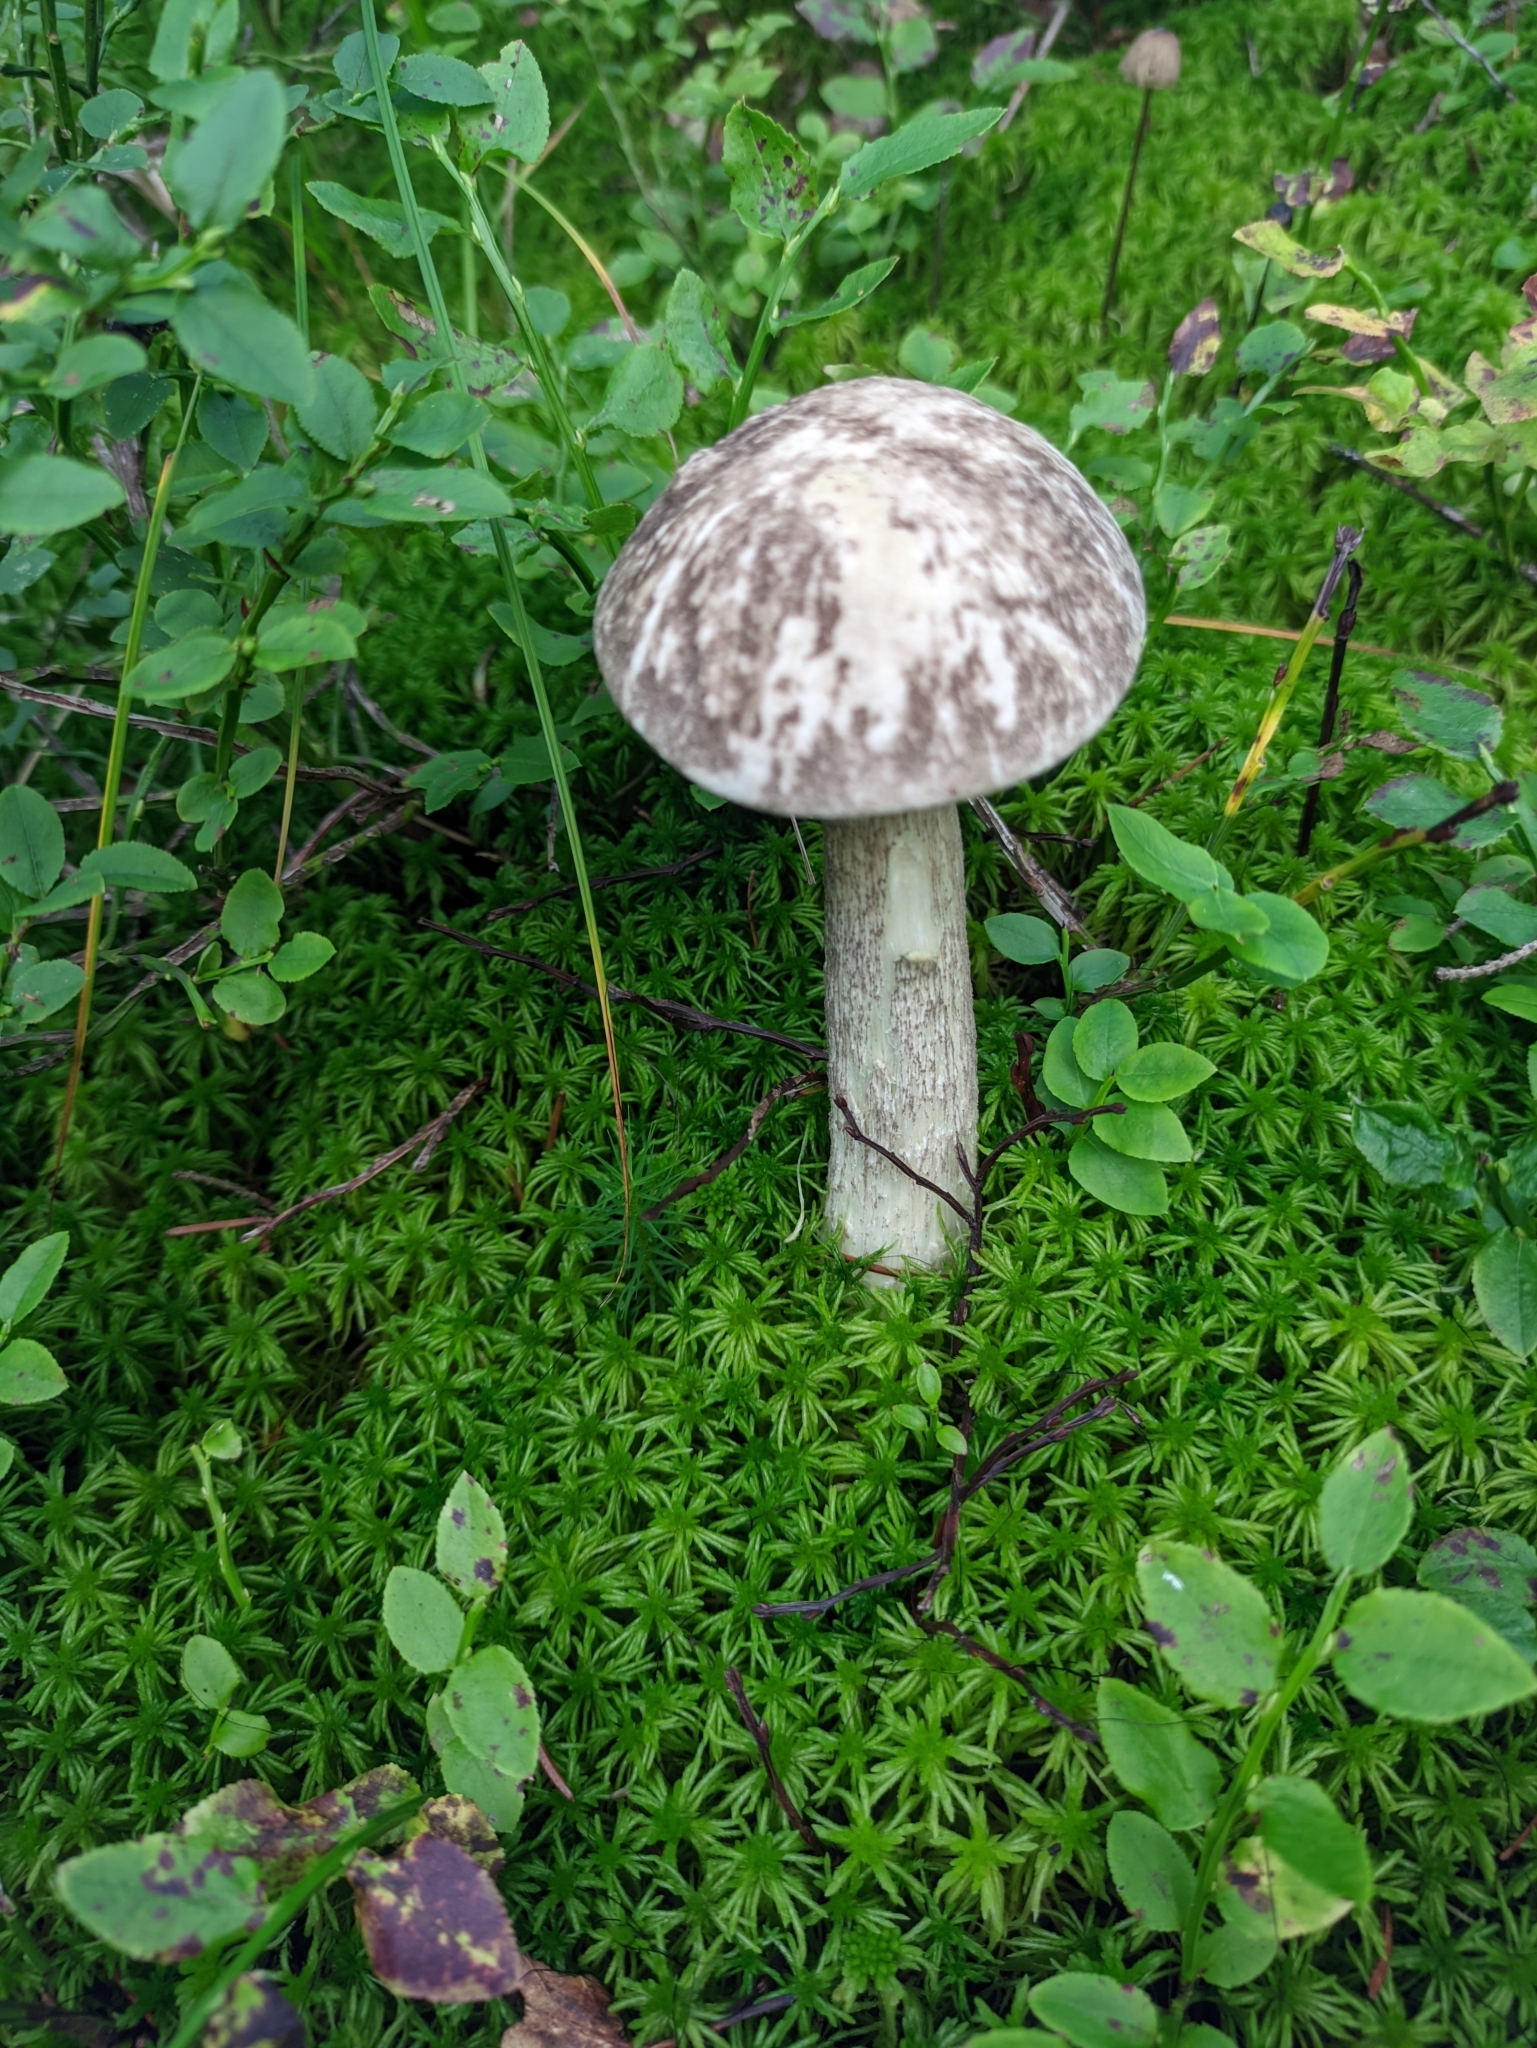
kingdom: Fungi
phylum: Basidiomycota
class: Agaricomycetes
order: Boletales
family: Boletaceae
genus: Leccinum
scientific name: Leccinum variicolor
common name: Mottled bolete
